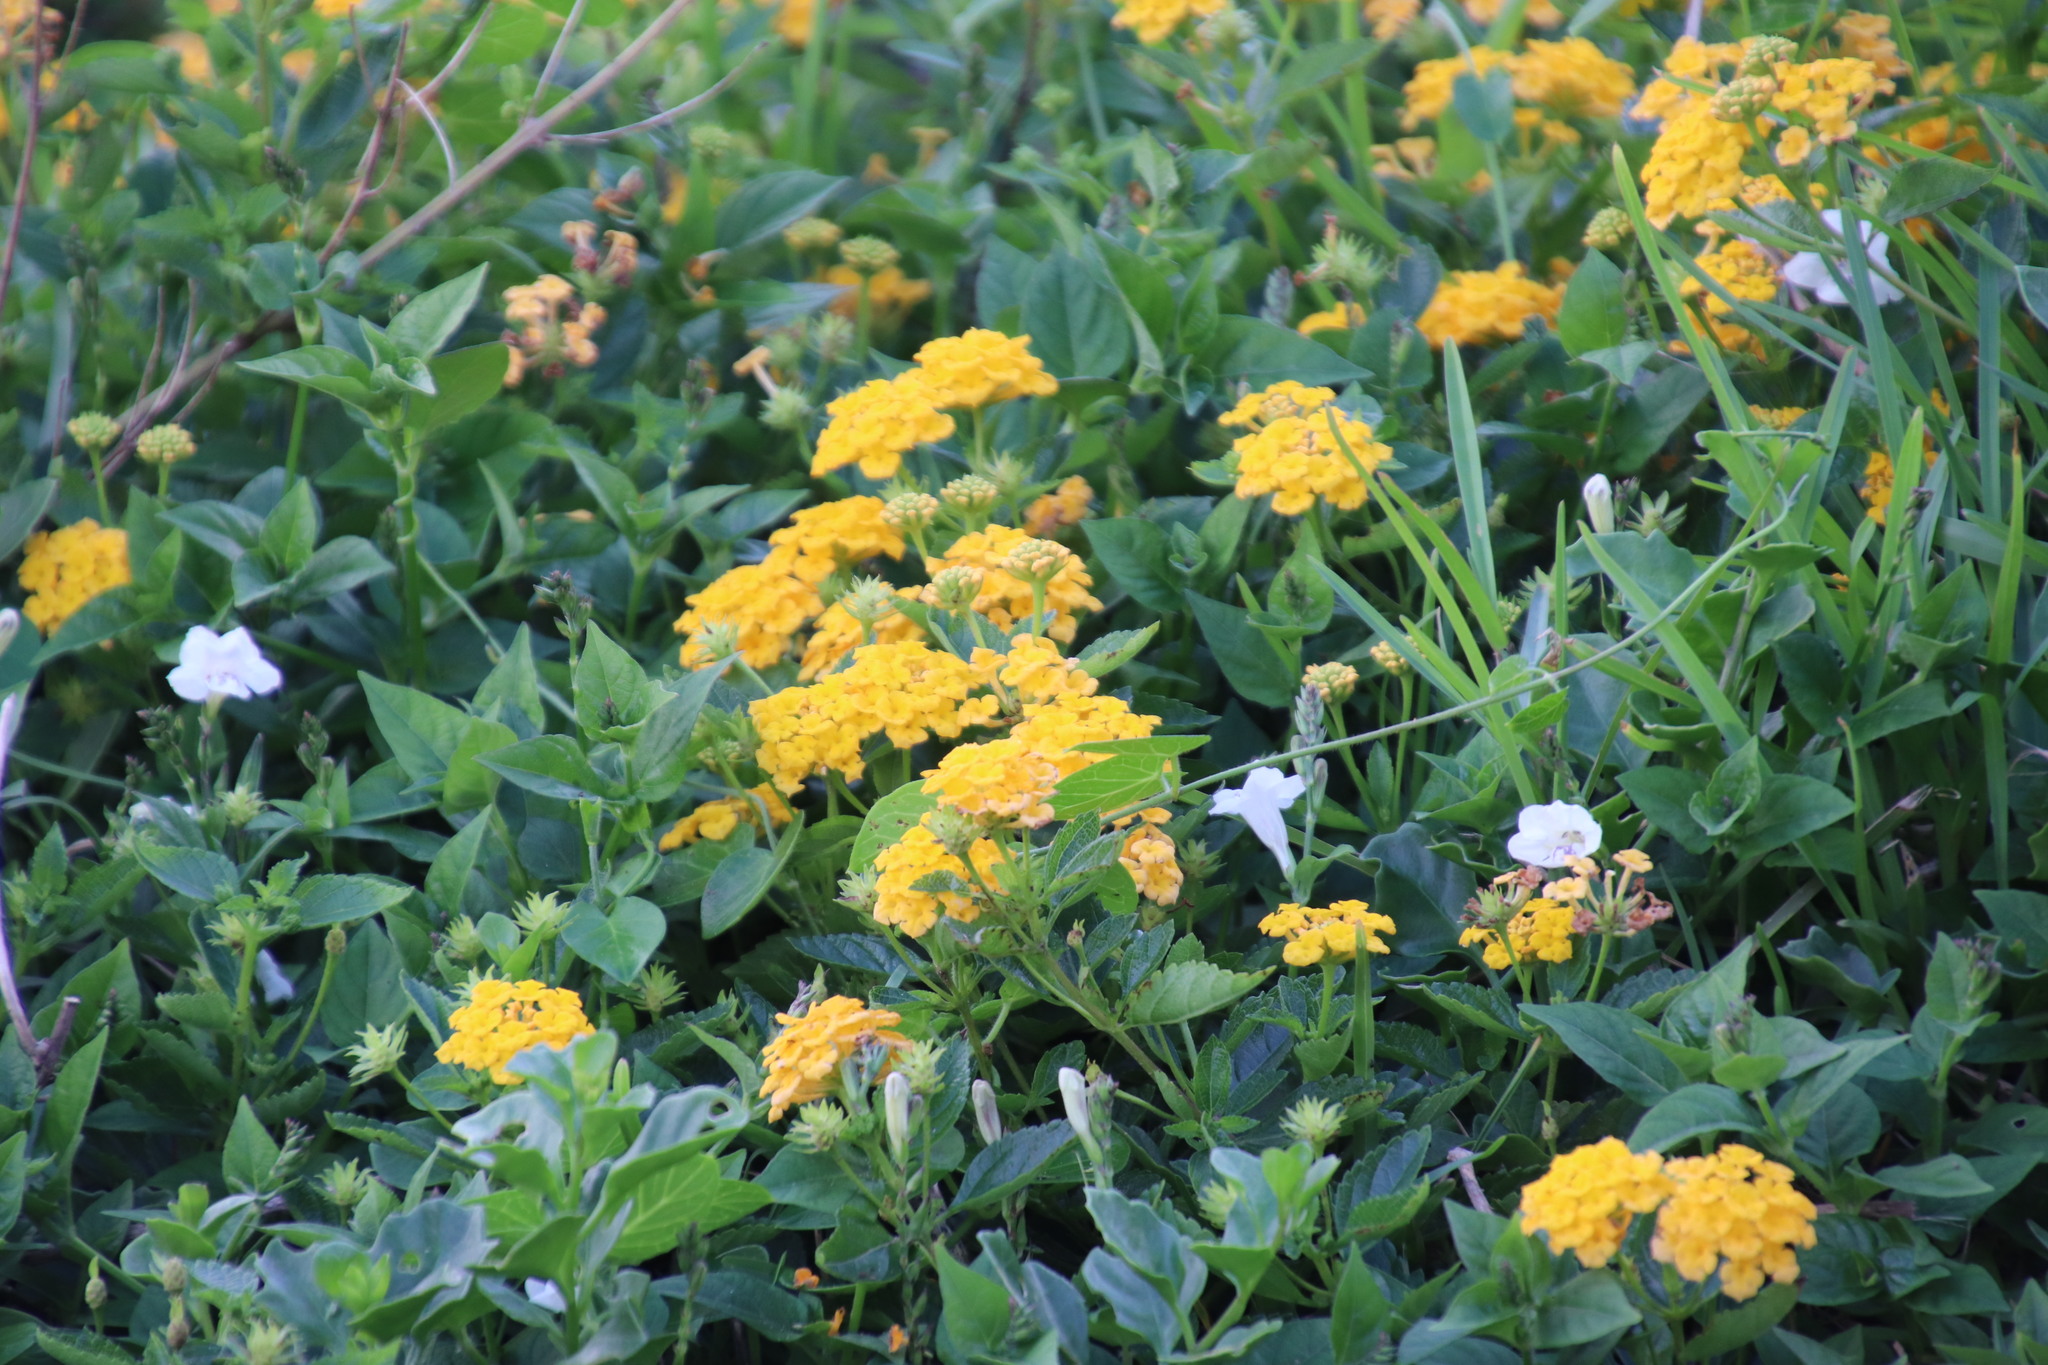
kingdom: Plantae
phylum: Tracheophyta
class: Magnoliopsida
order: Lamiales
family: Verbenaceae
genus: Lantana
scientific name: Lantana polyacantha
